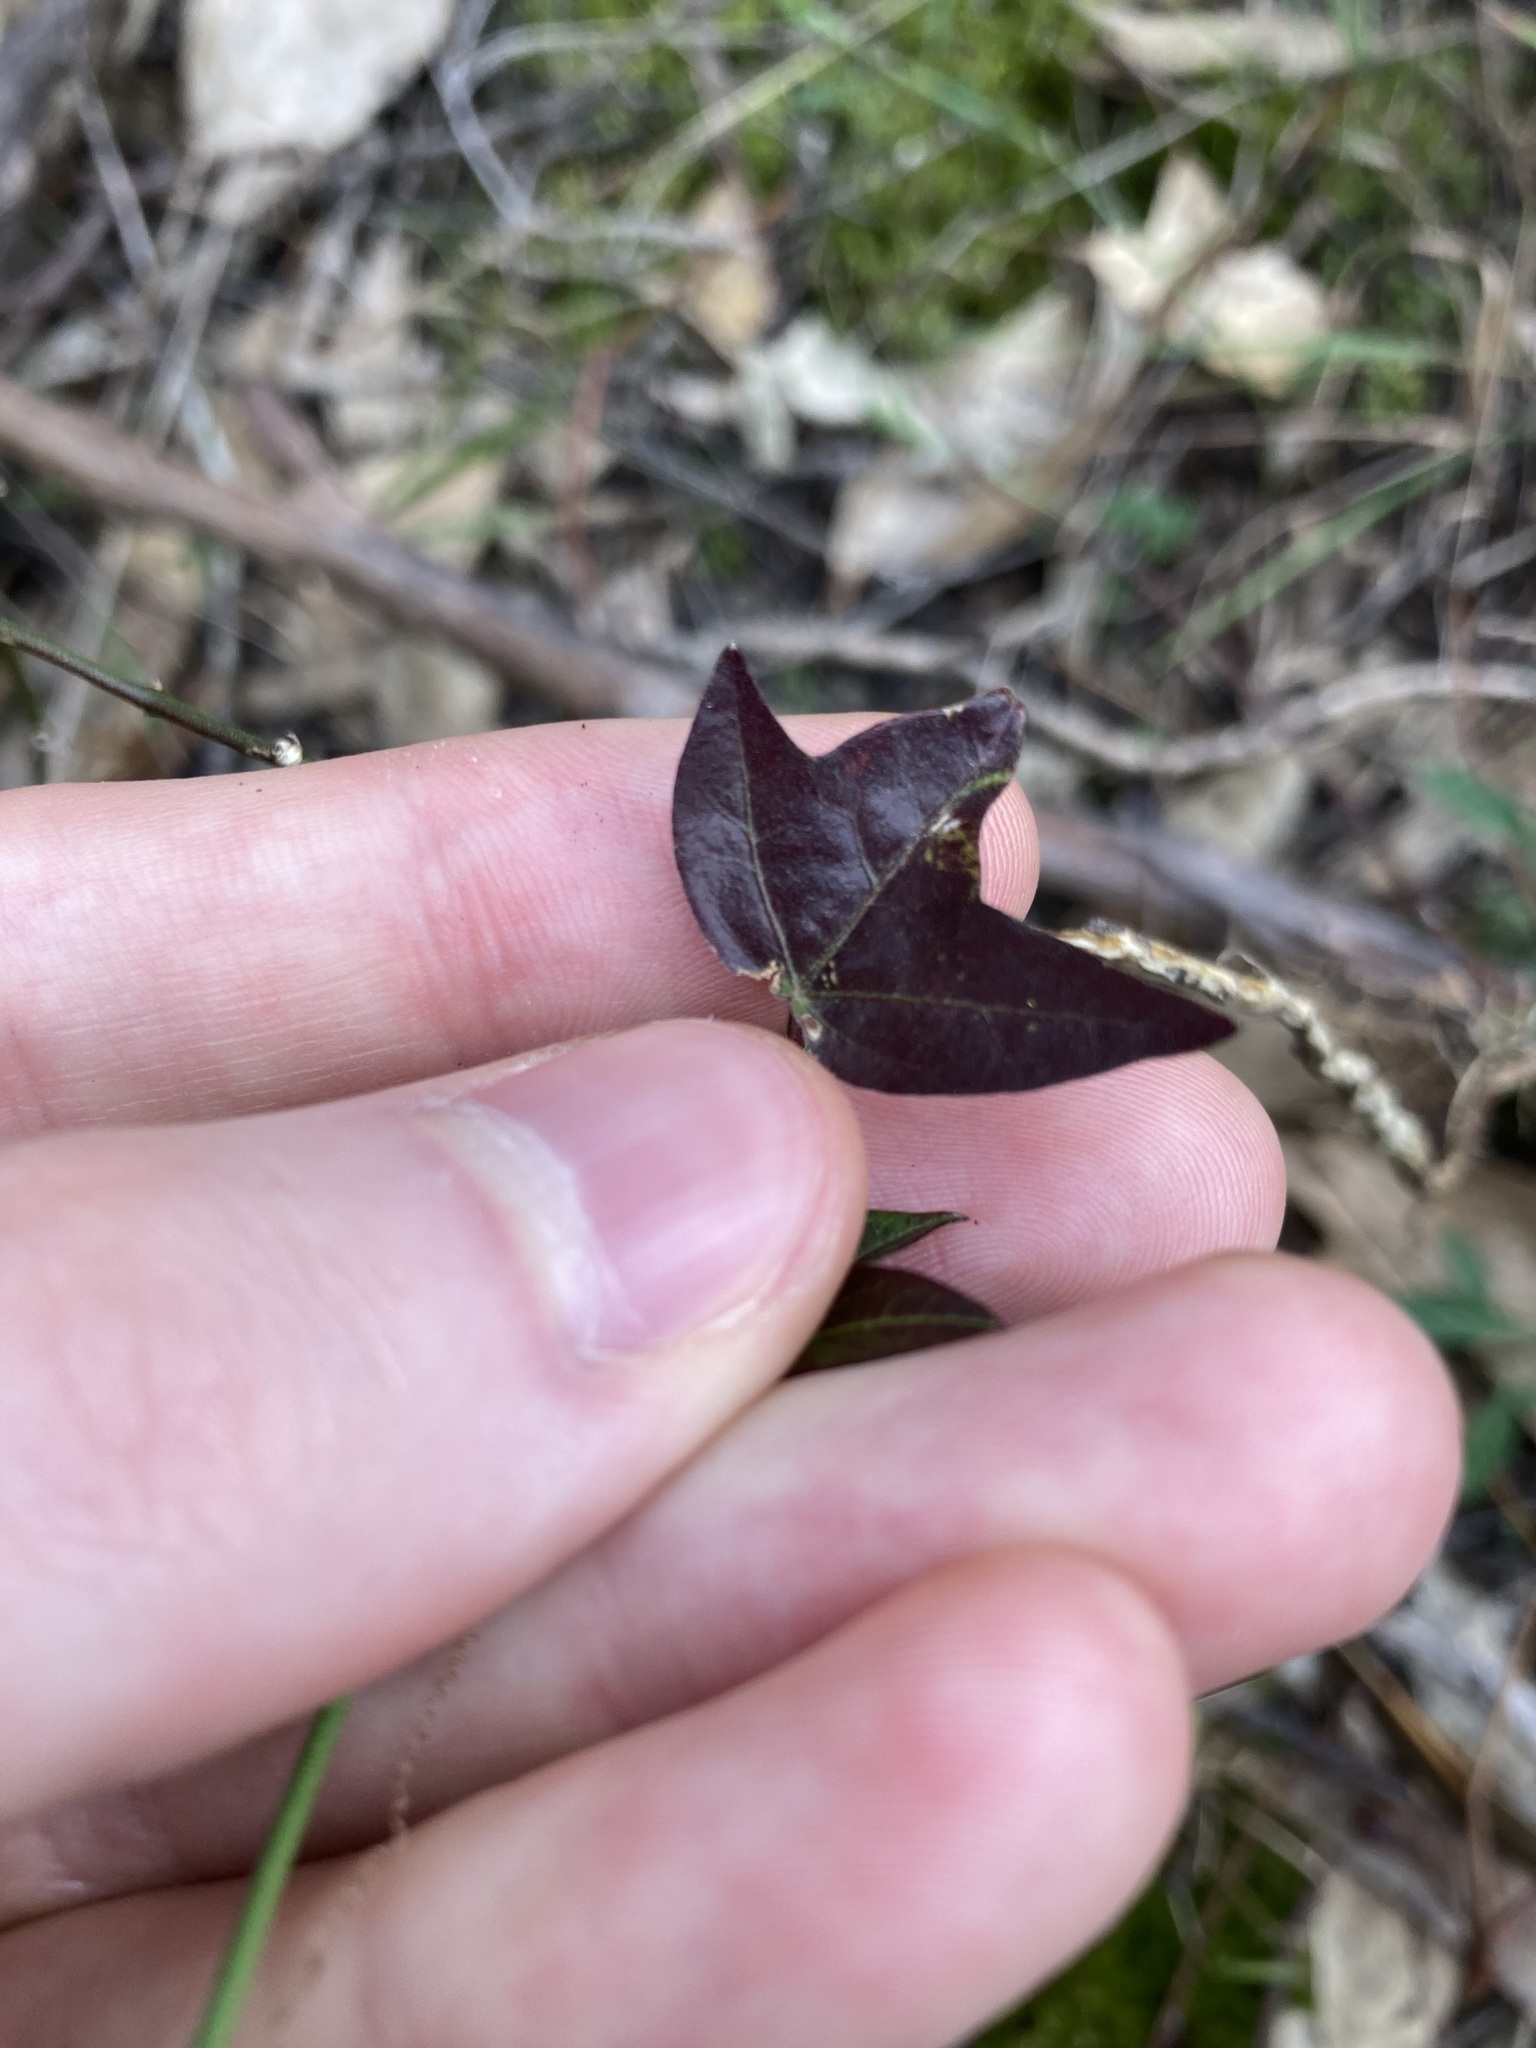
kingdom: Plantae
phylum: Tracheophyta
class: Magnoliopsida
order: Malpighiales
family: Passifloraceae
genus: Passiflora
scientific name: Passiflora suberosa
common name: Wild passionfruit
